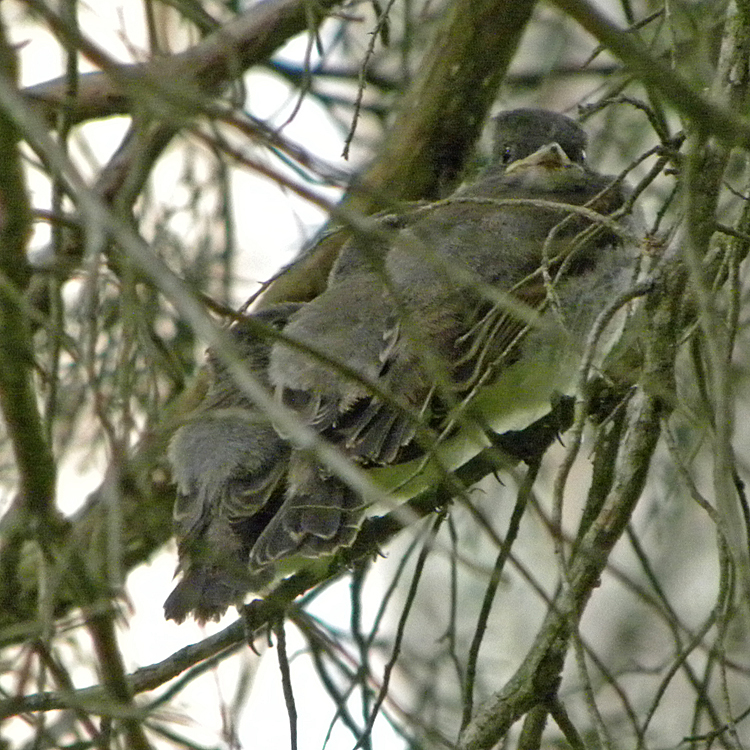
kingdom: Animalia
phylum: Chordata
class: Aves
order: Passeriformes
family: Tyrannidae
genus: Sayornis
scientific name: Sayornis phoebe
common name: Eastern phoebe
